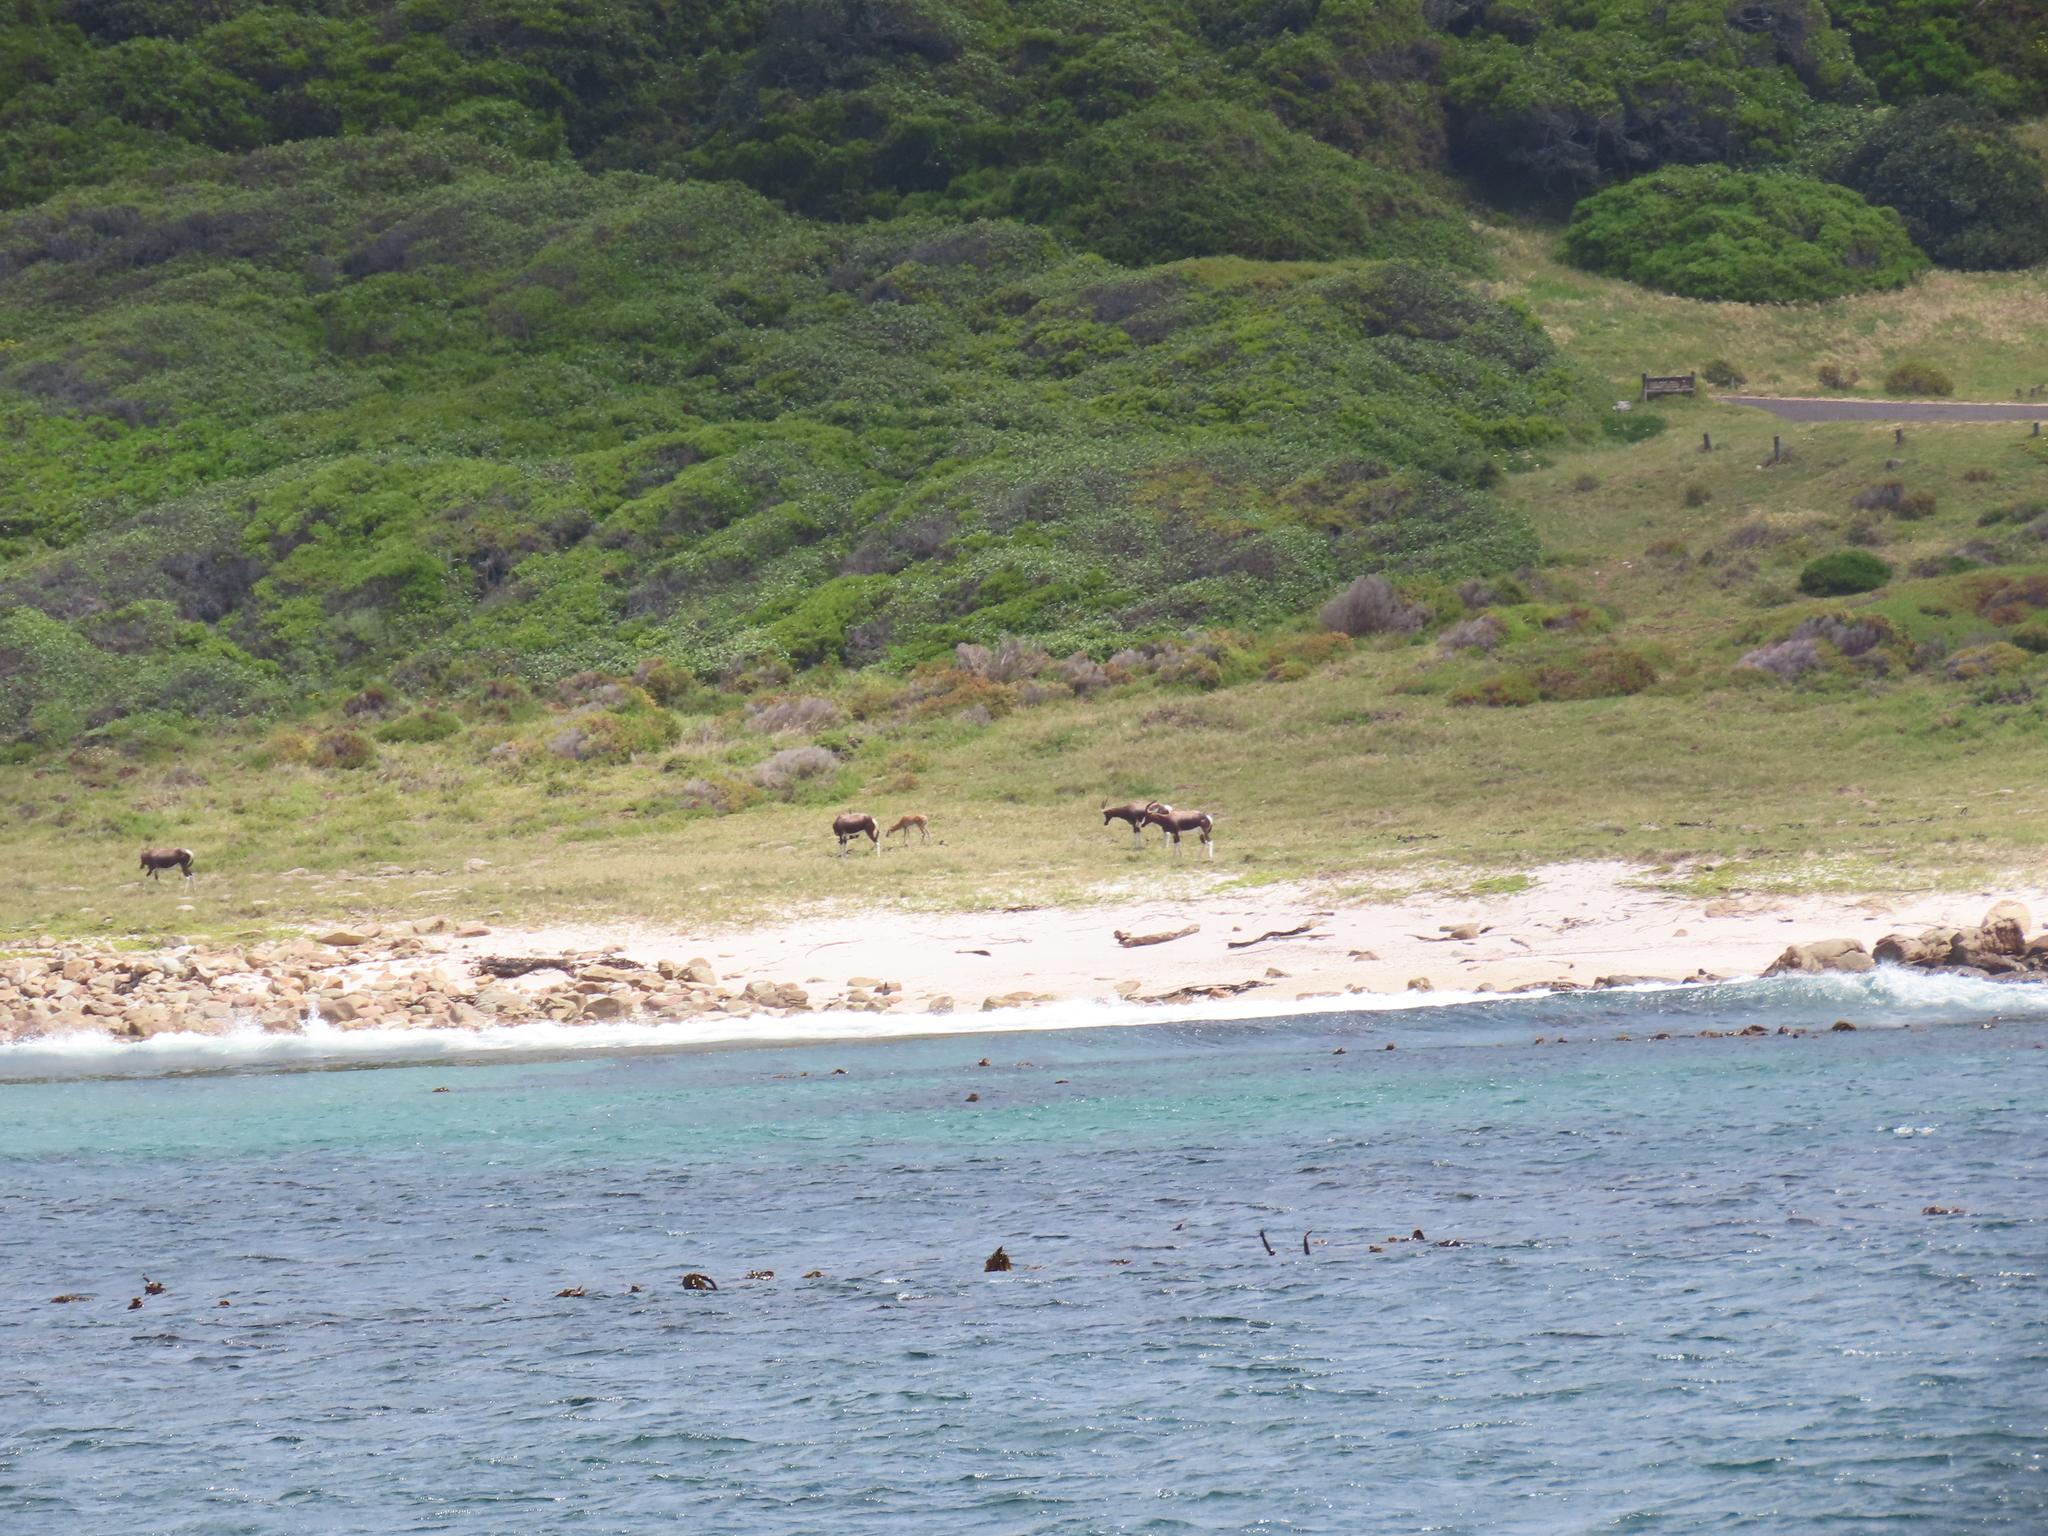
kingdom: Animalia
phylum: Chordata
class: Mammalia
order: Artiodactyla
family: Bovidae
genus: Damaliscus
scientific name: Damaliscus pygargus
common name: Bontebok
